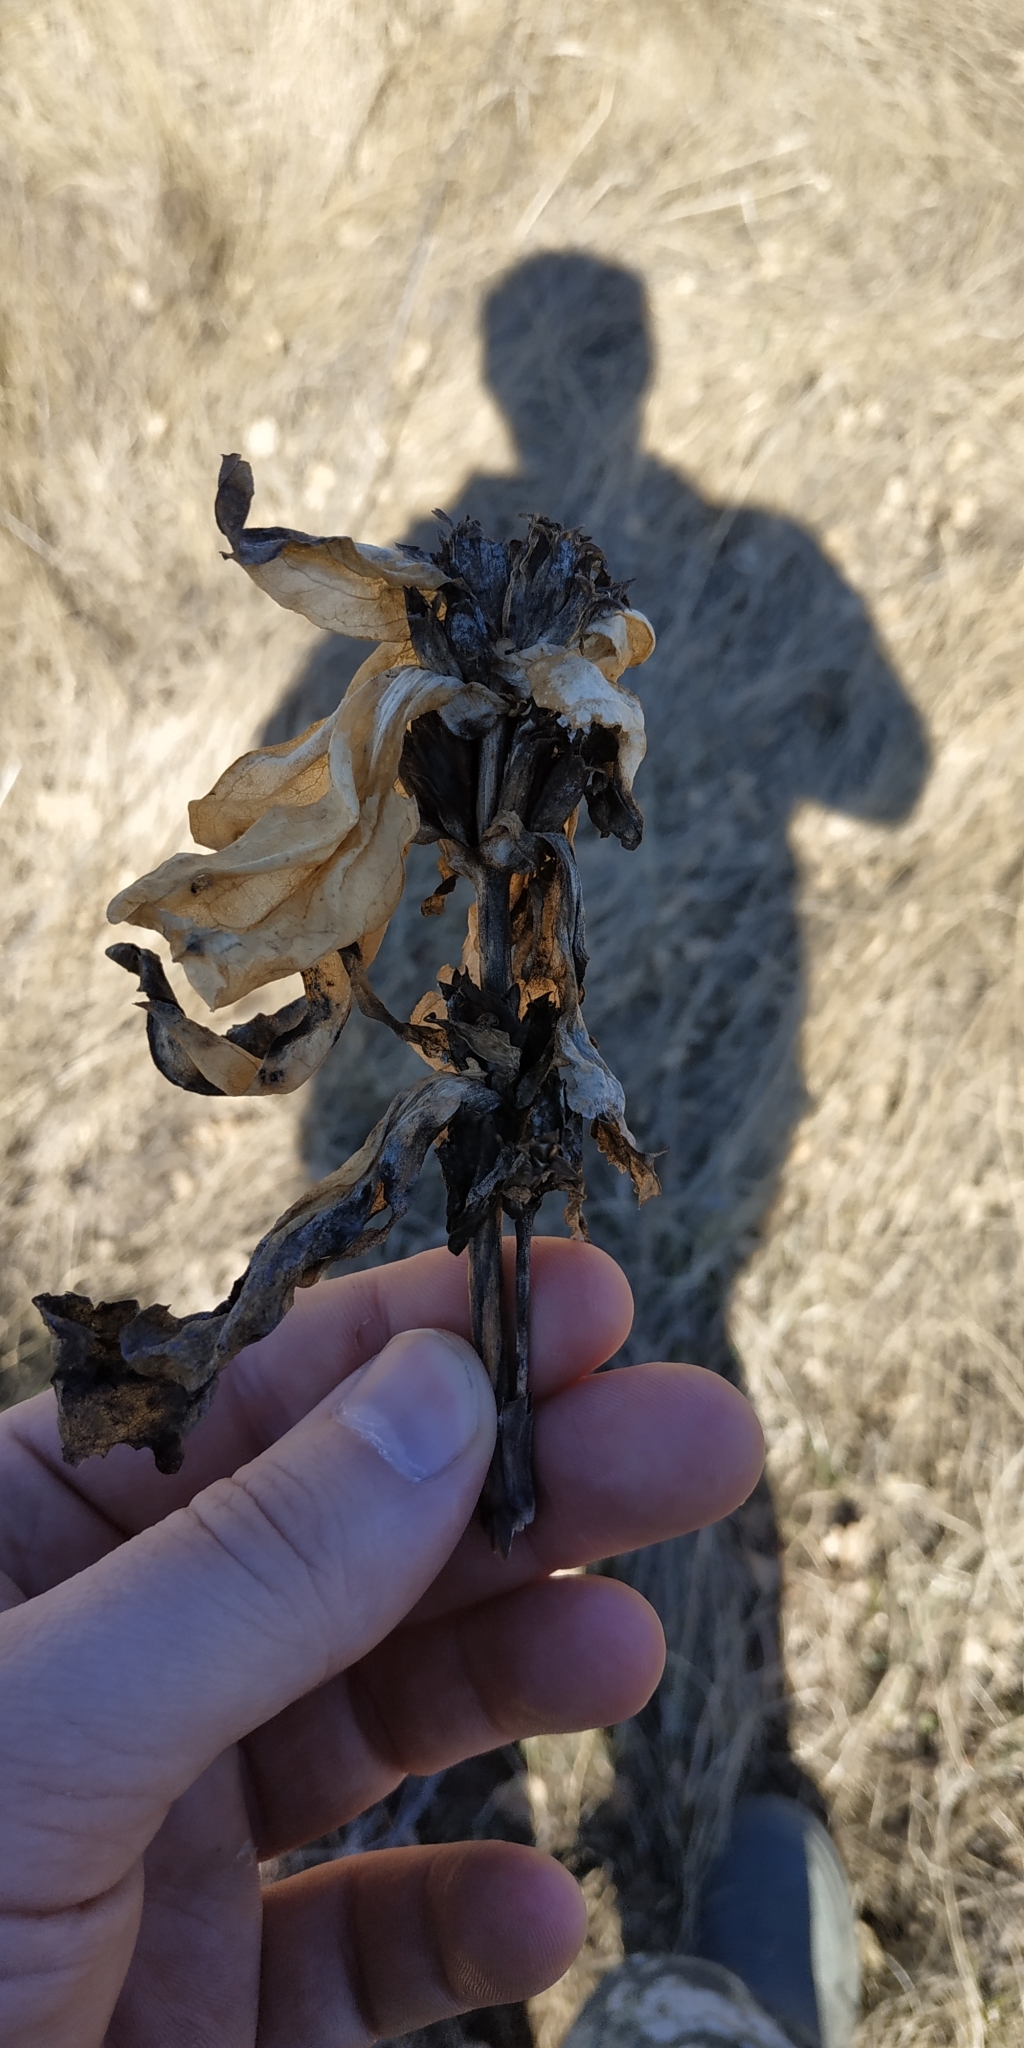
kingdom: Plantae
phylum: Tracheophyta
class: Magnoliopsida
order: Gentianales
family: Gentianaceae
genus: Gentiana
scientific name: Gentiana cruciata
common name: Cross gentian
